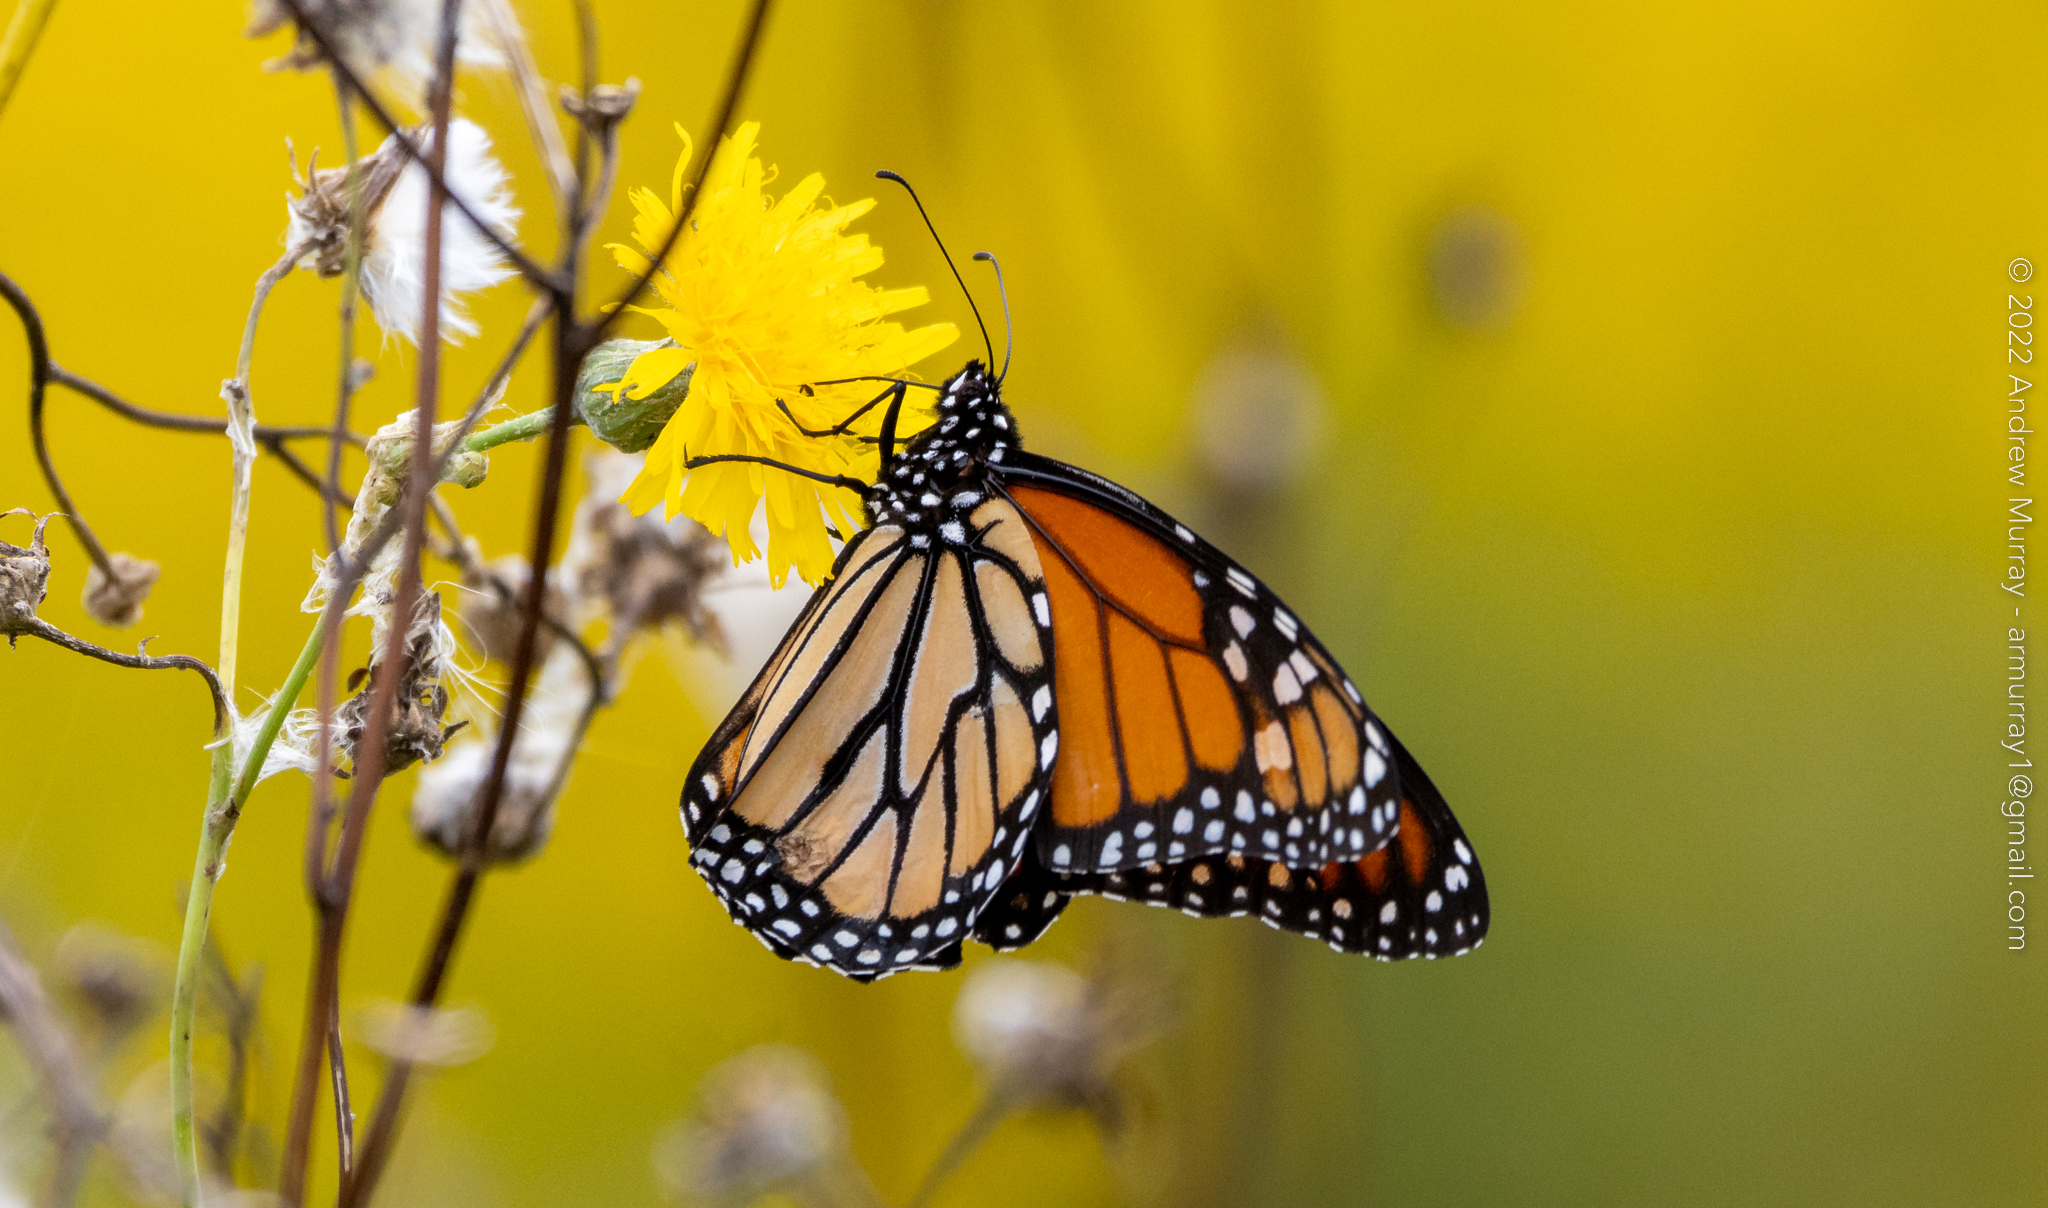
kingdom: Animalia
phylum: Arthropoda
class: Insecta
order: Lepidoptera
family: Nymphalidae
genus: Danaus
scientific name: Danaus plexippus
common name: Monarch
